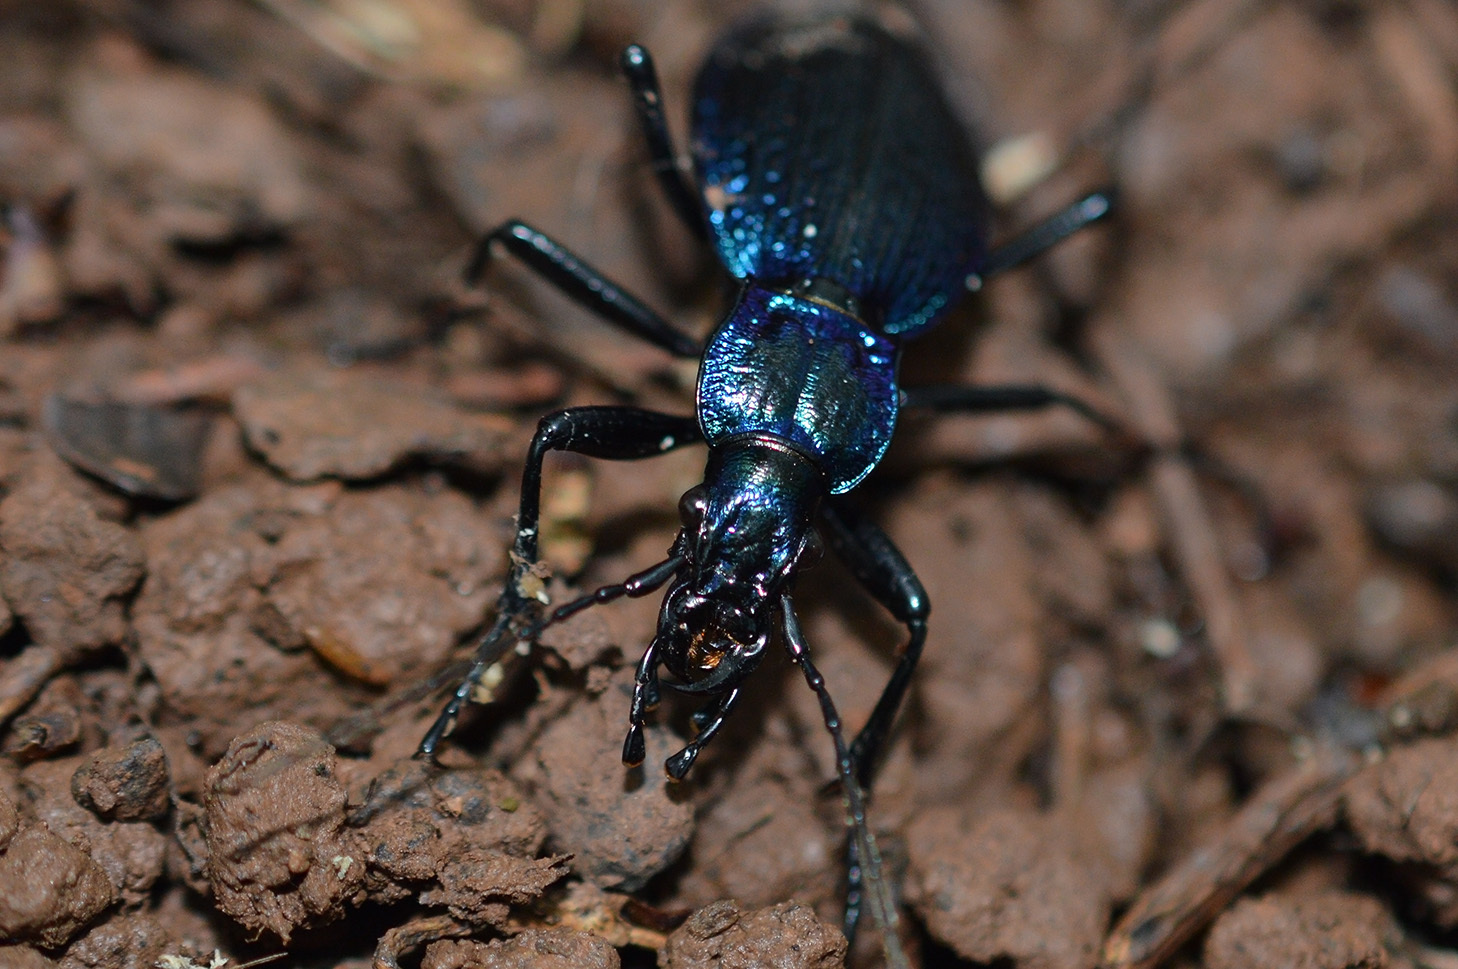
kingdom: Animalia
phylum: Arthropoda
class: Insecta
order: Coleoptera
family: Carabidae
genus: Carabus
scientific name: Carabus intricatus
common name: Blue ground beetle
